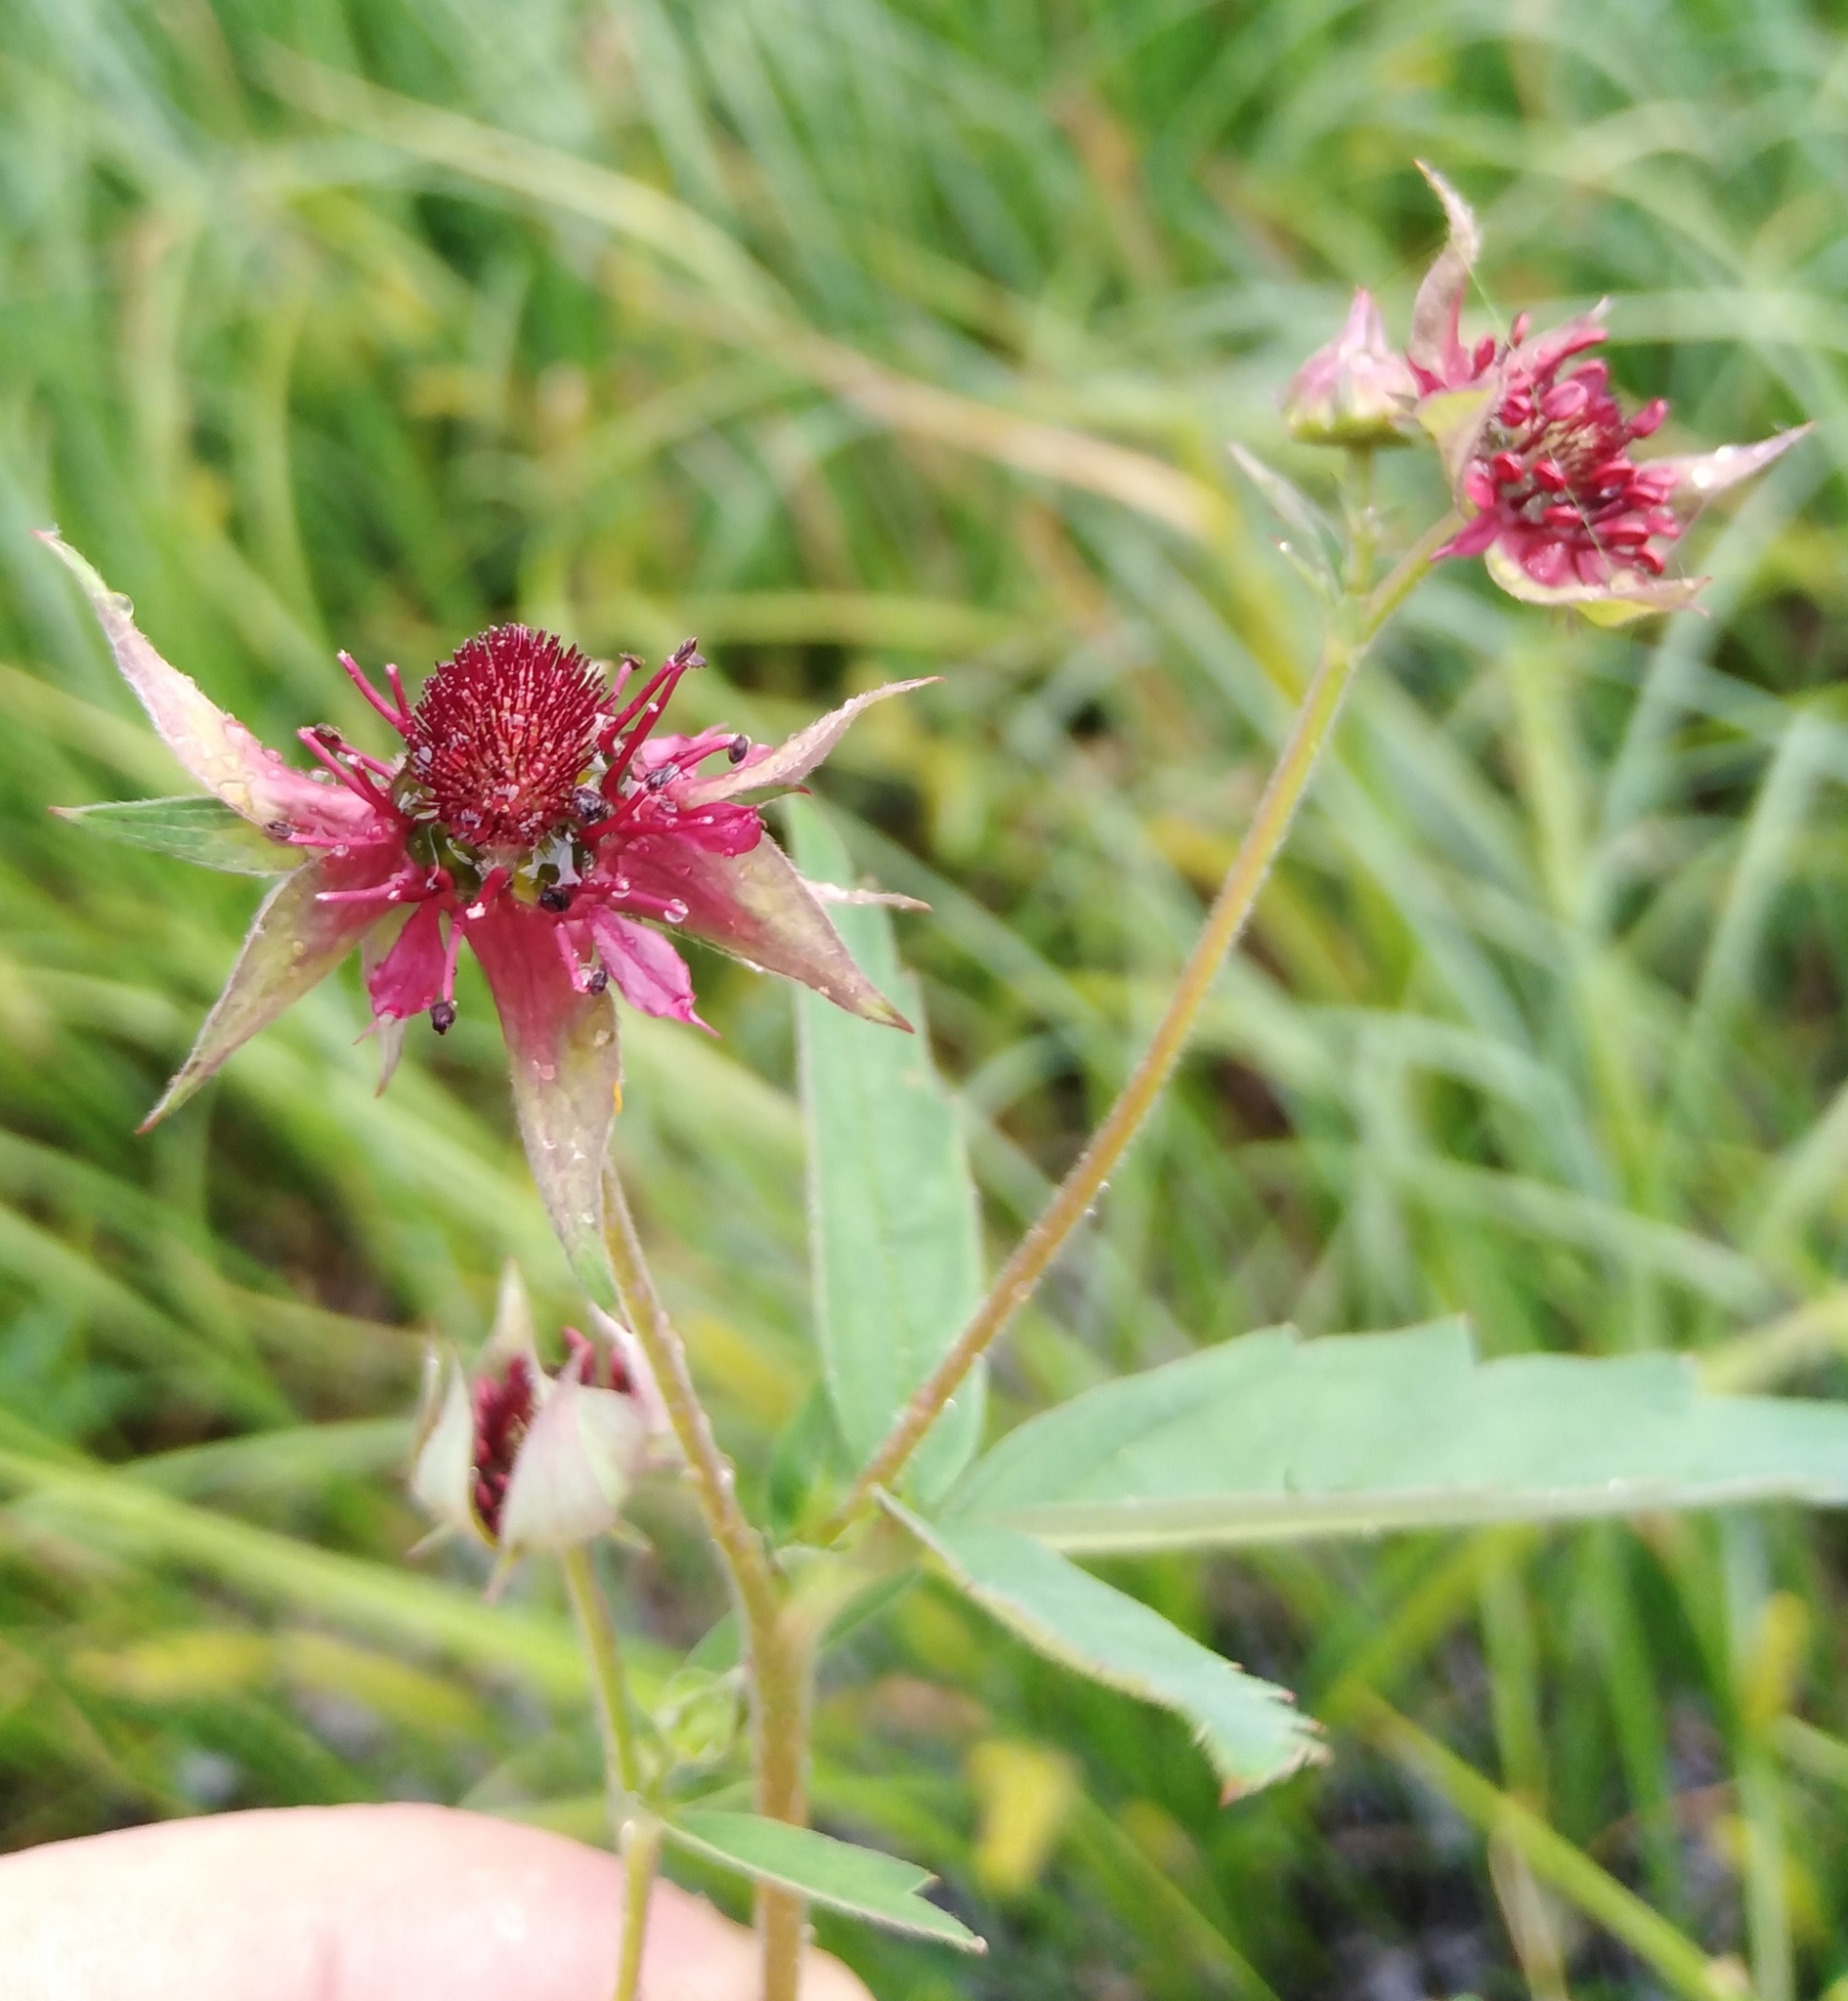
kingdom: Plantae
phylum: Tracheophyta
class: Magnoliopsida
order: Rosales
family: Rosaceae
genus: Comarum
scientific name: Comarum palustre
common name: Marsh cinquefoil
